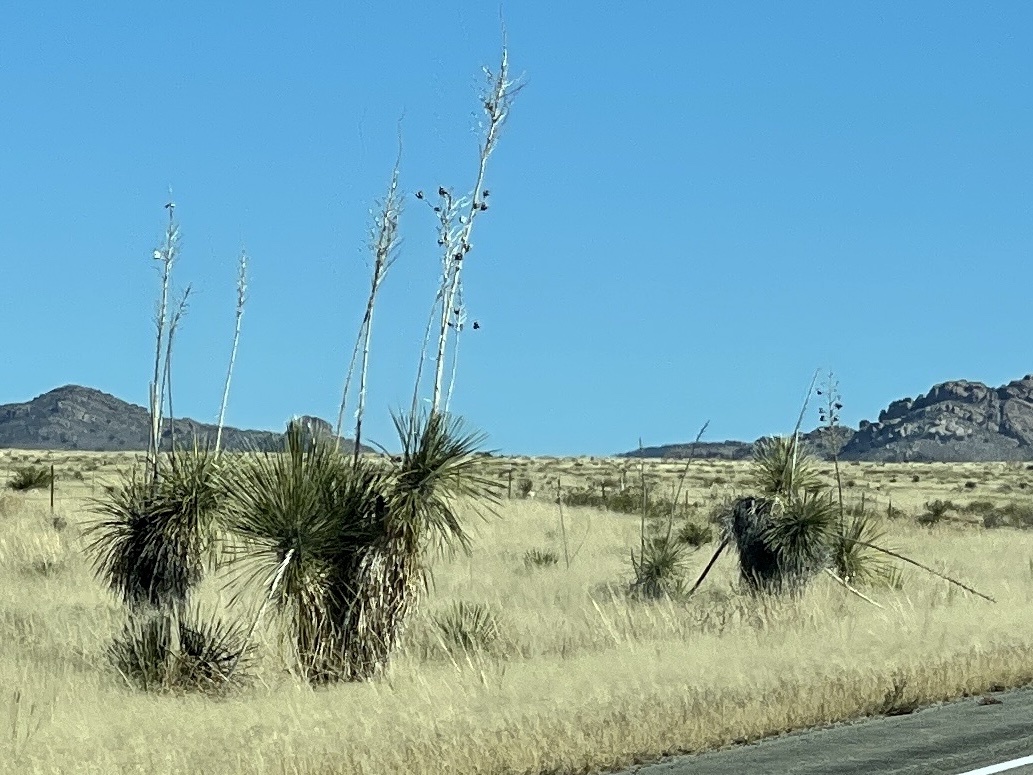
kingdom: Plantae
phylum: Tracheophyta
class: Liliopsida
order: Asparagales
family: Asparagaceae
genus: Yucca
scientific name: Yucca elata
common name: Palmella
